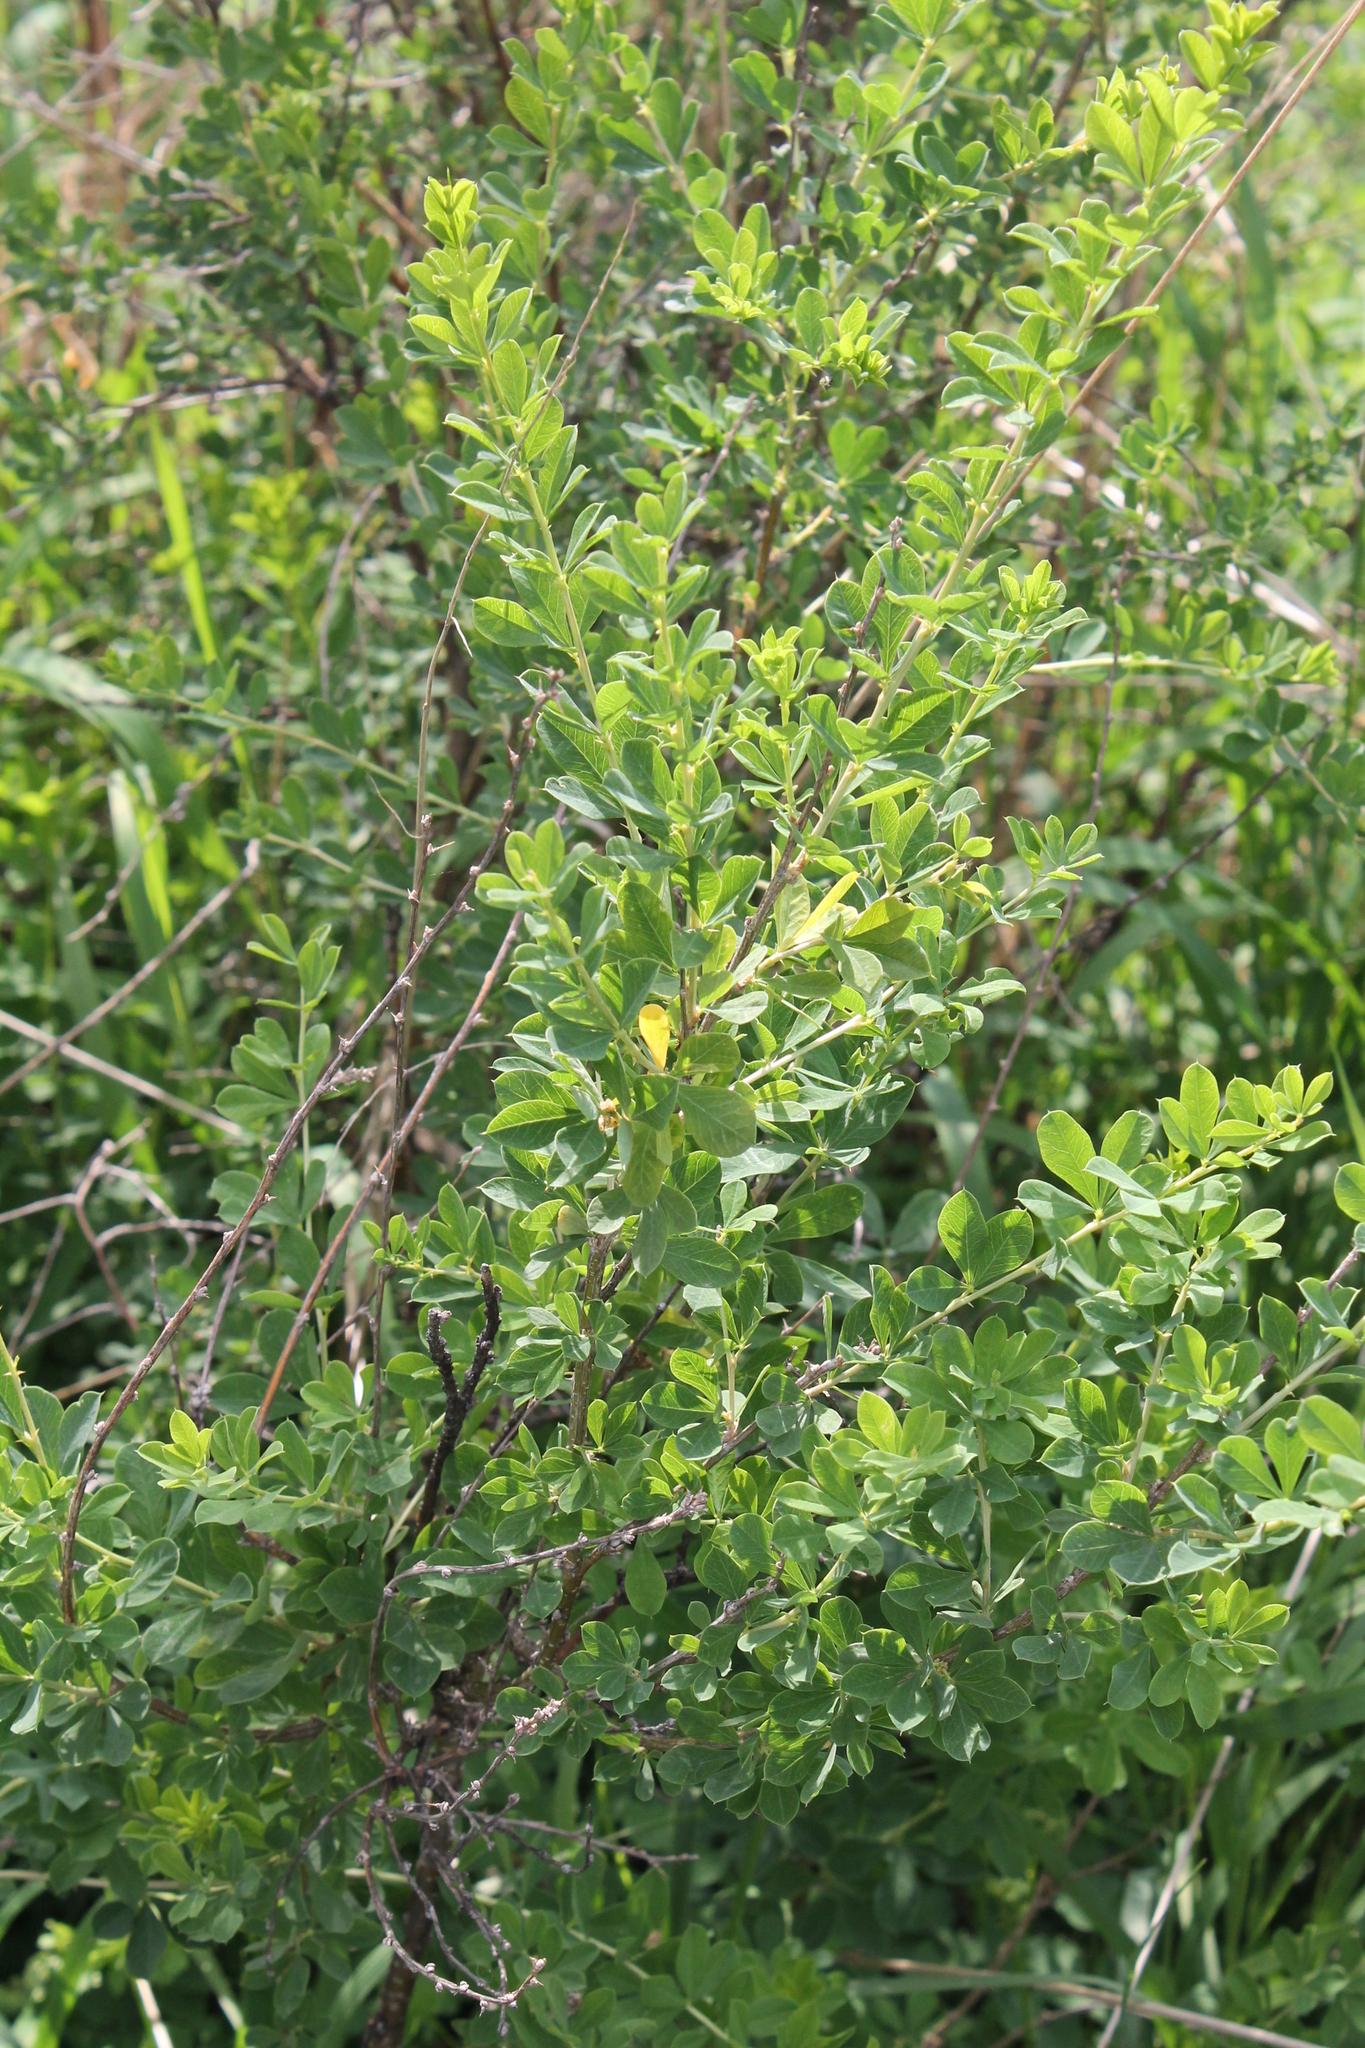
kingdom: Plantae
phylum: Tracheophyta
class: Magnoliopsida
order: Fabales
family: Fabaceae
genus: Caragana
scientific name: Caragana frutex
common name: Russian peashrub
